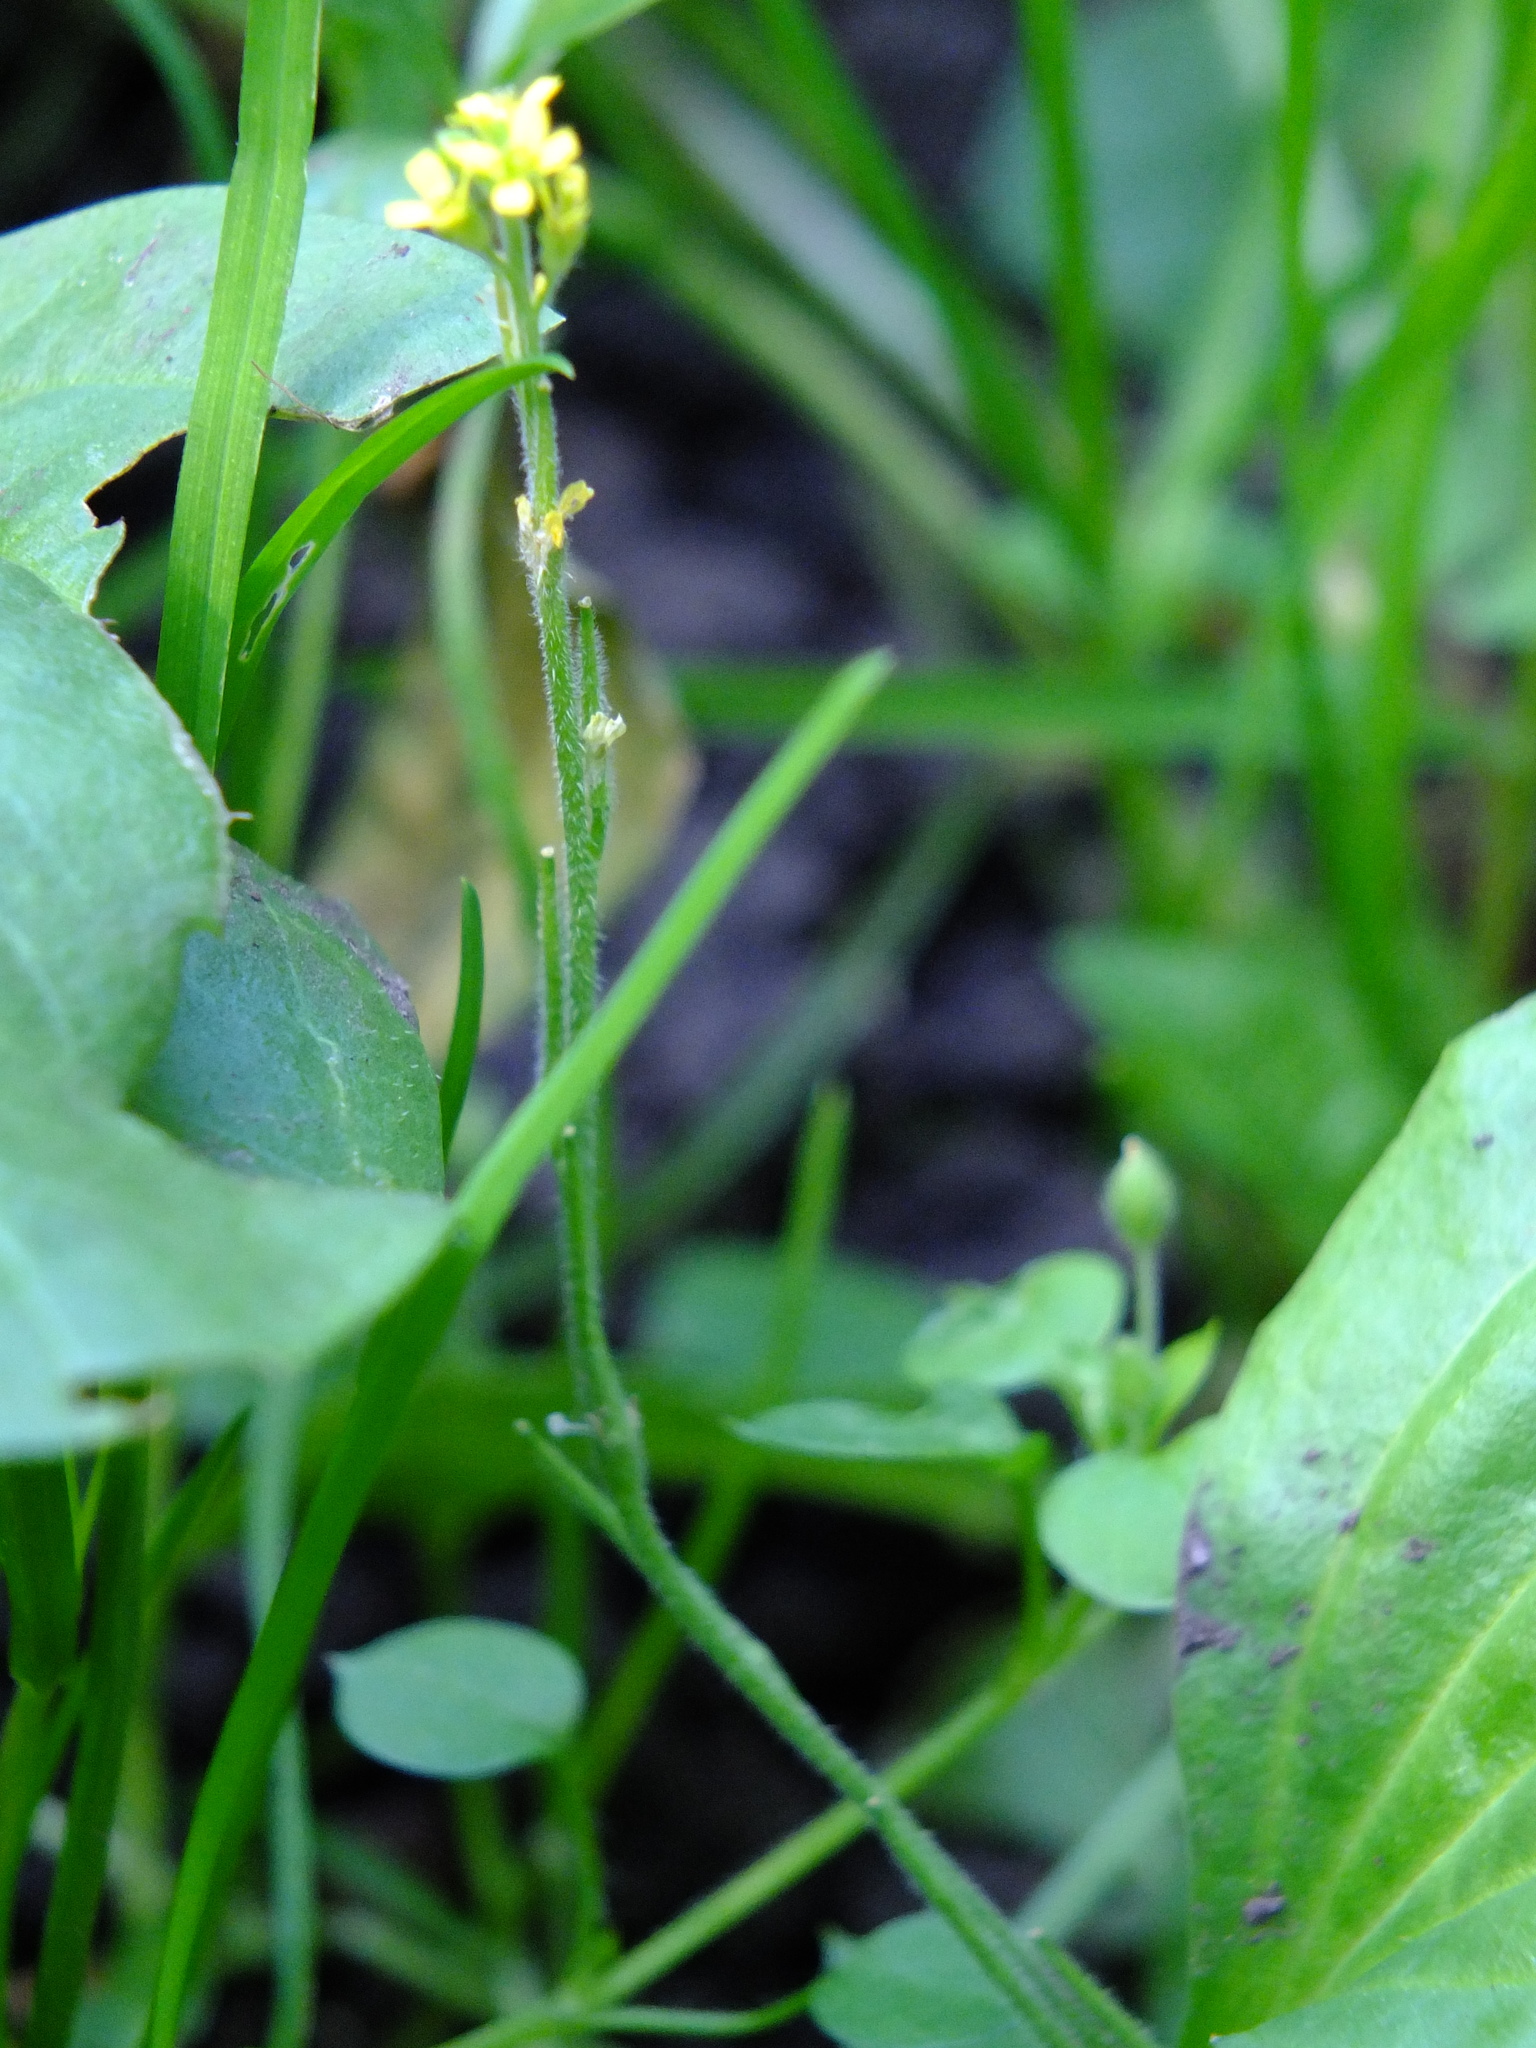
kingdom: Plantae
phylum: Tracheophyta
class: Magnoliopsida
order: Brassicales
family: Brassicaceae
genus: Sisymbrium
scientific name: Sisymbrium officinale
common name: Hedge mustard
